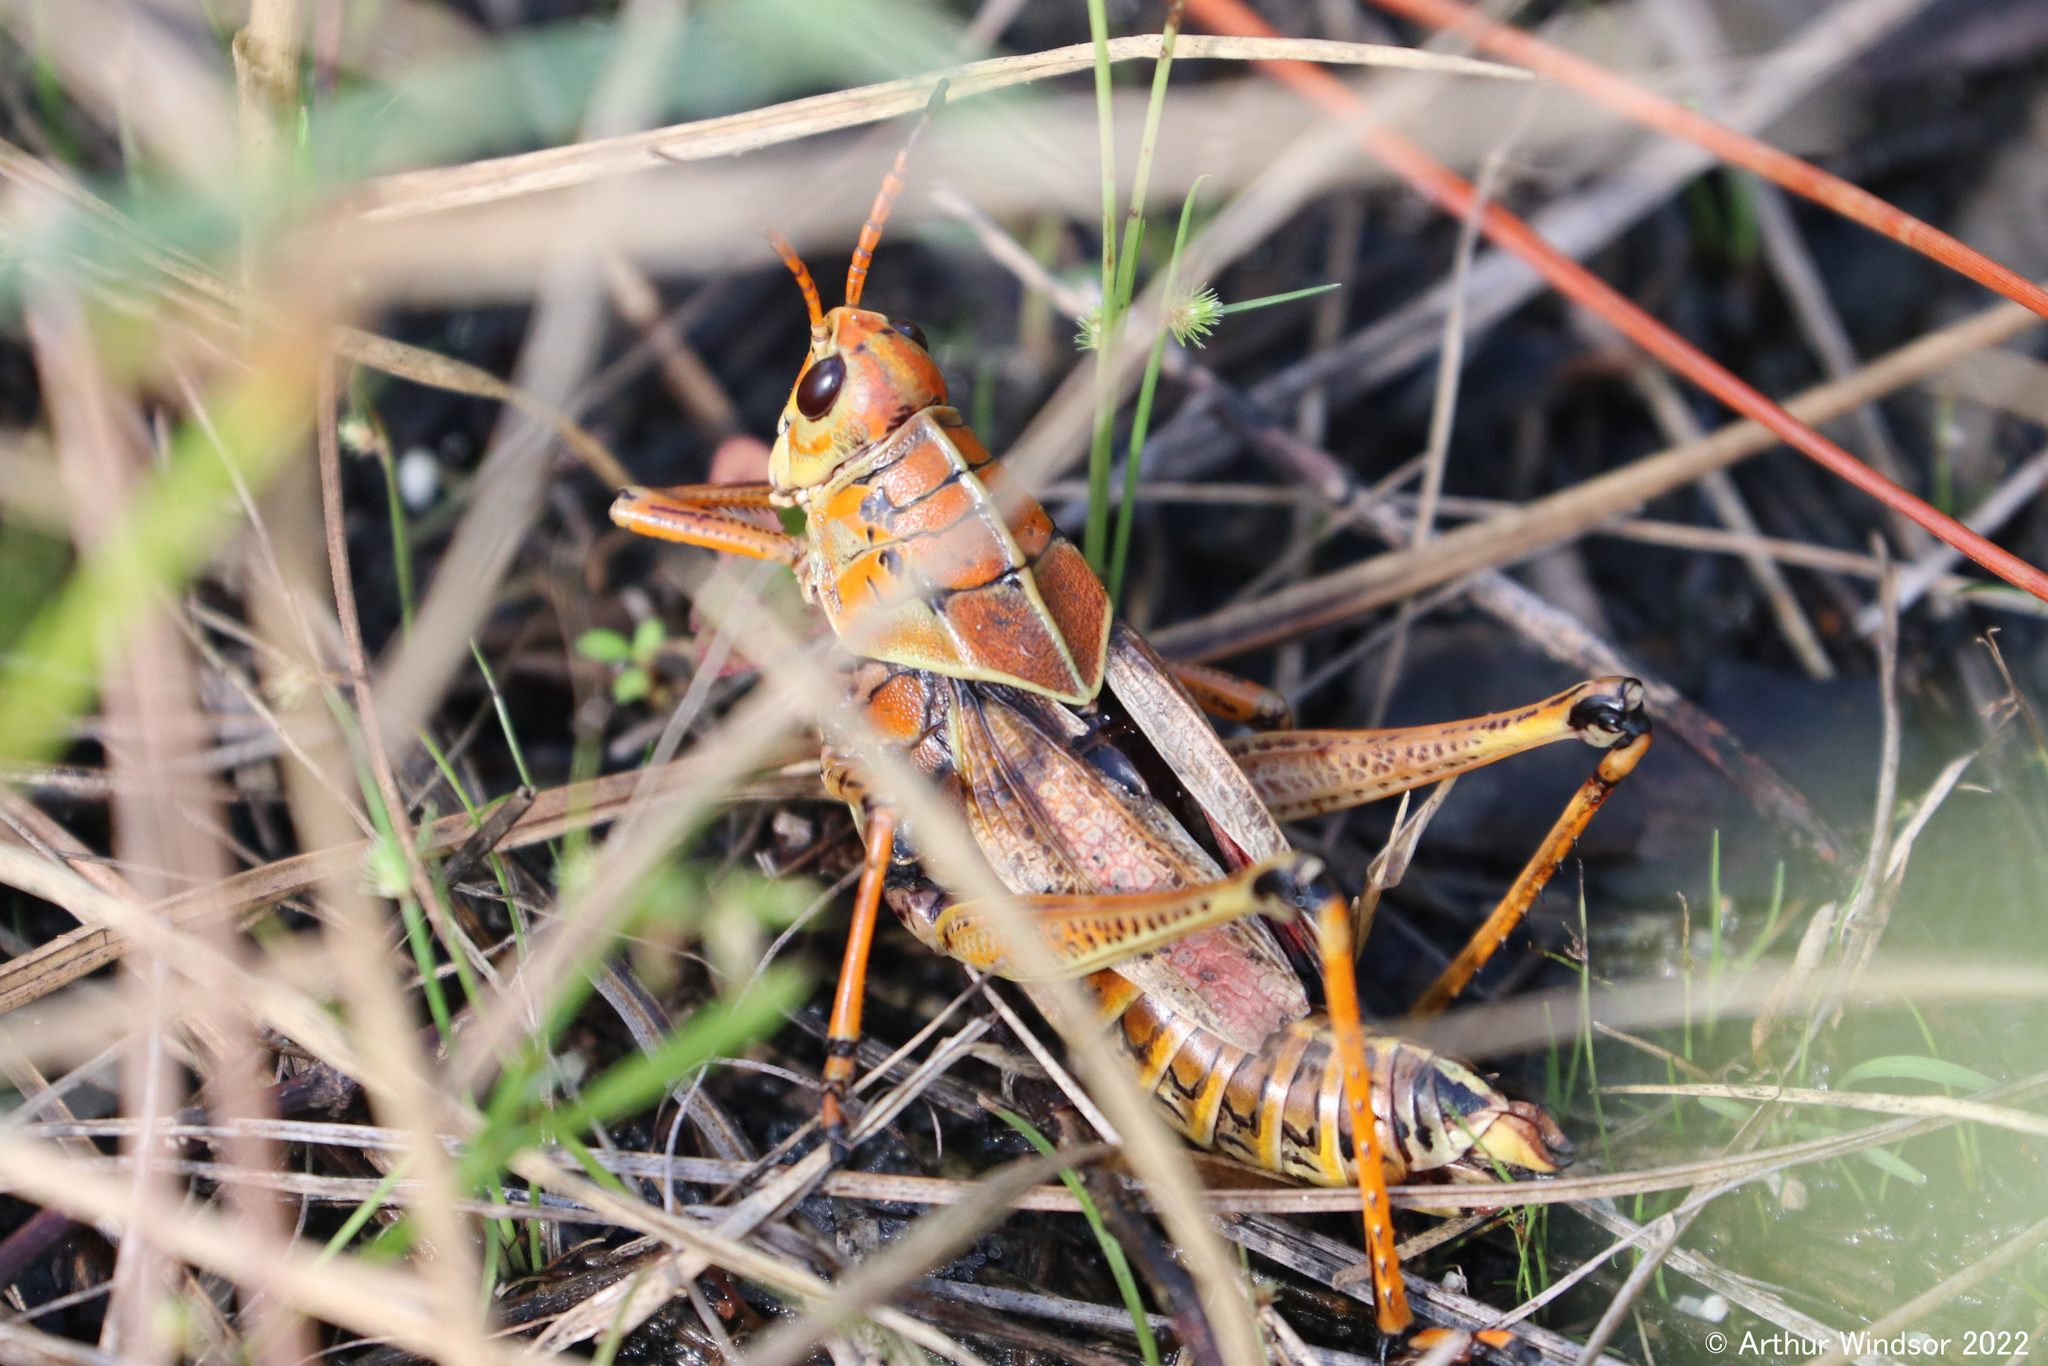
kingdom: Animalia
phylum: Arthropoda
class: Insecta
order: Orthoptera
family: Romaleidae
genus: Romalea
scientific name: Romalea microptera
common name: Eastern lubber grasshopper
